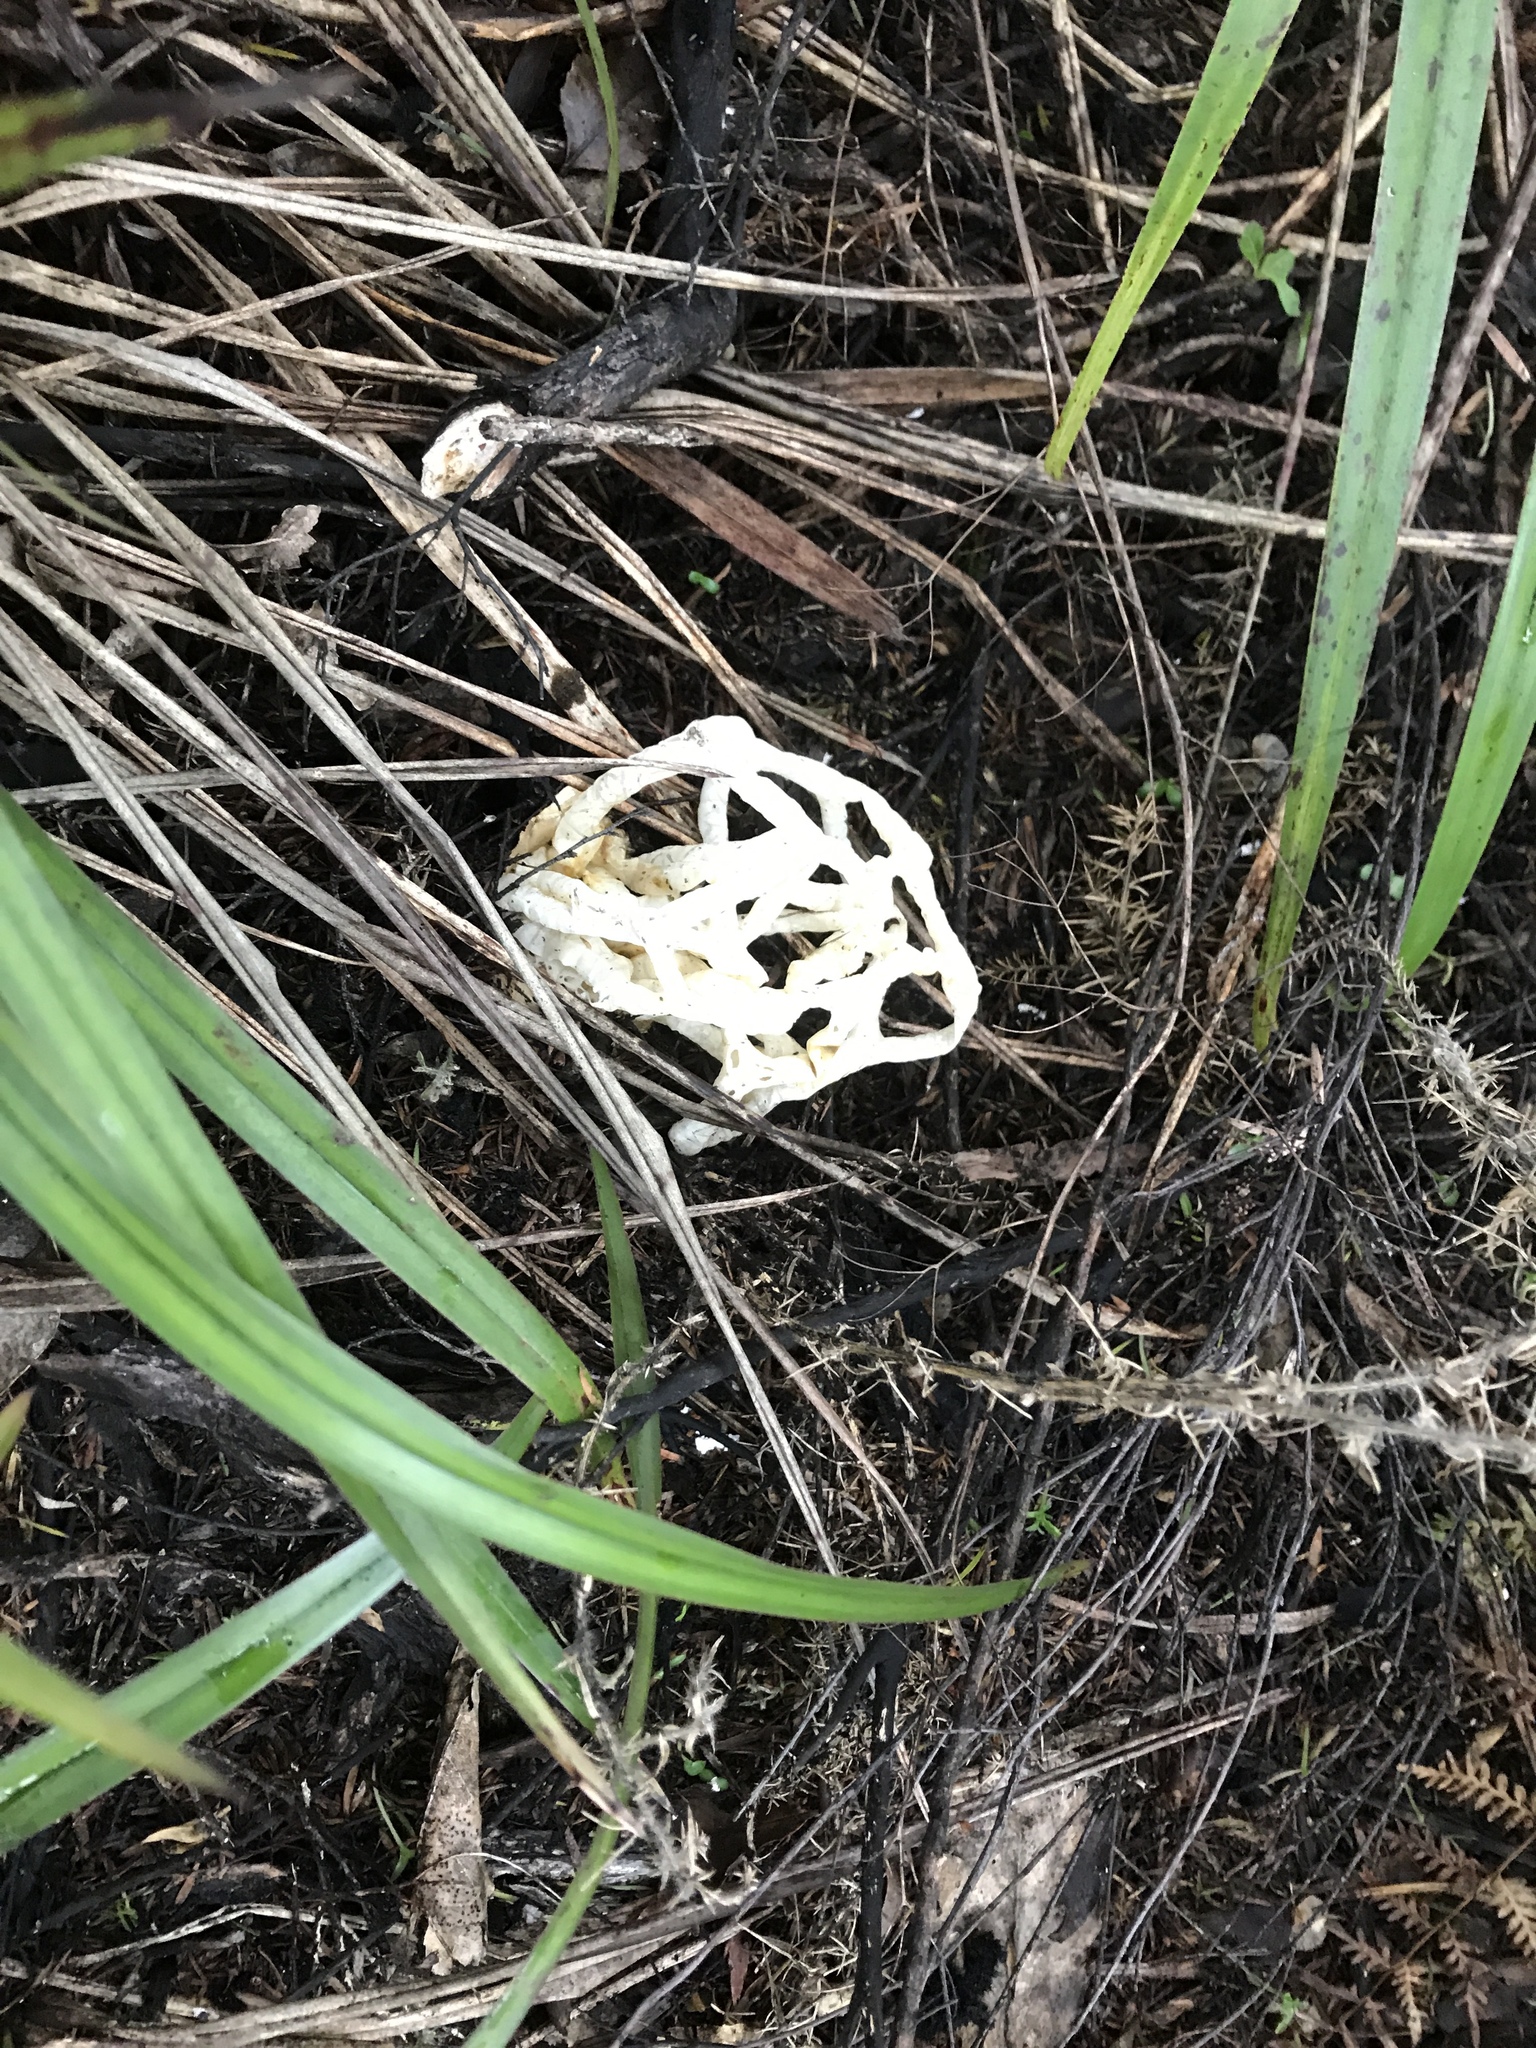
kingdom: Fungi
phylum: Basidiomycota
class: Agaricomycetes
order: Phallales
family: Phallaceae
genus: Ileodictyon
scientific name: Ileodictyon cibarium
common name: Basket fungus
